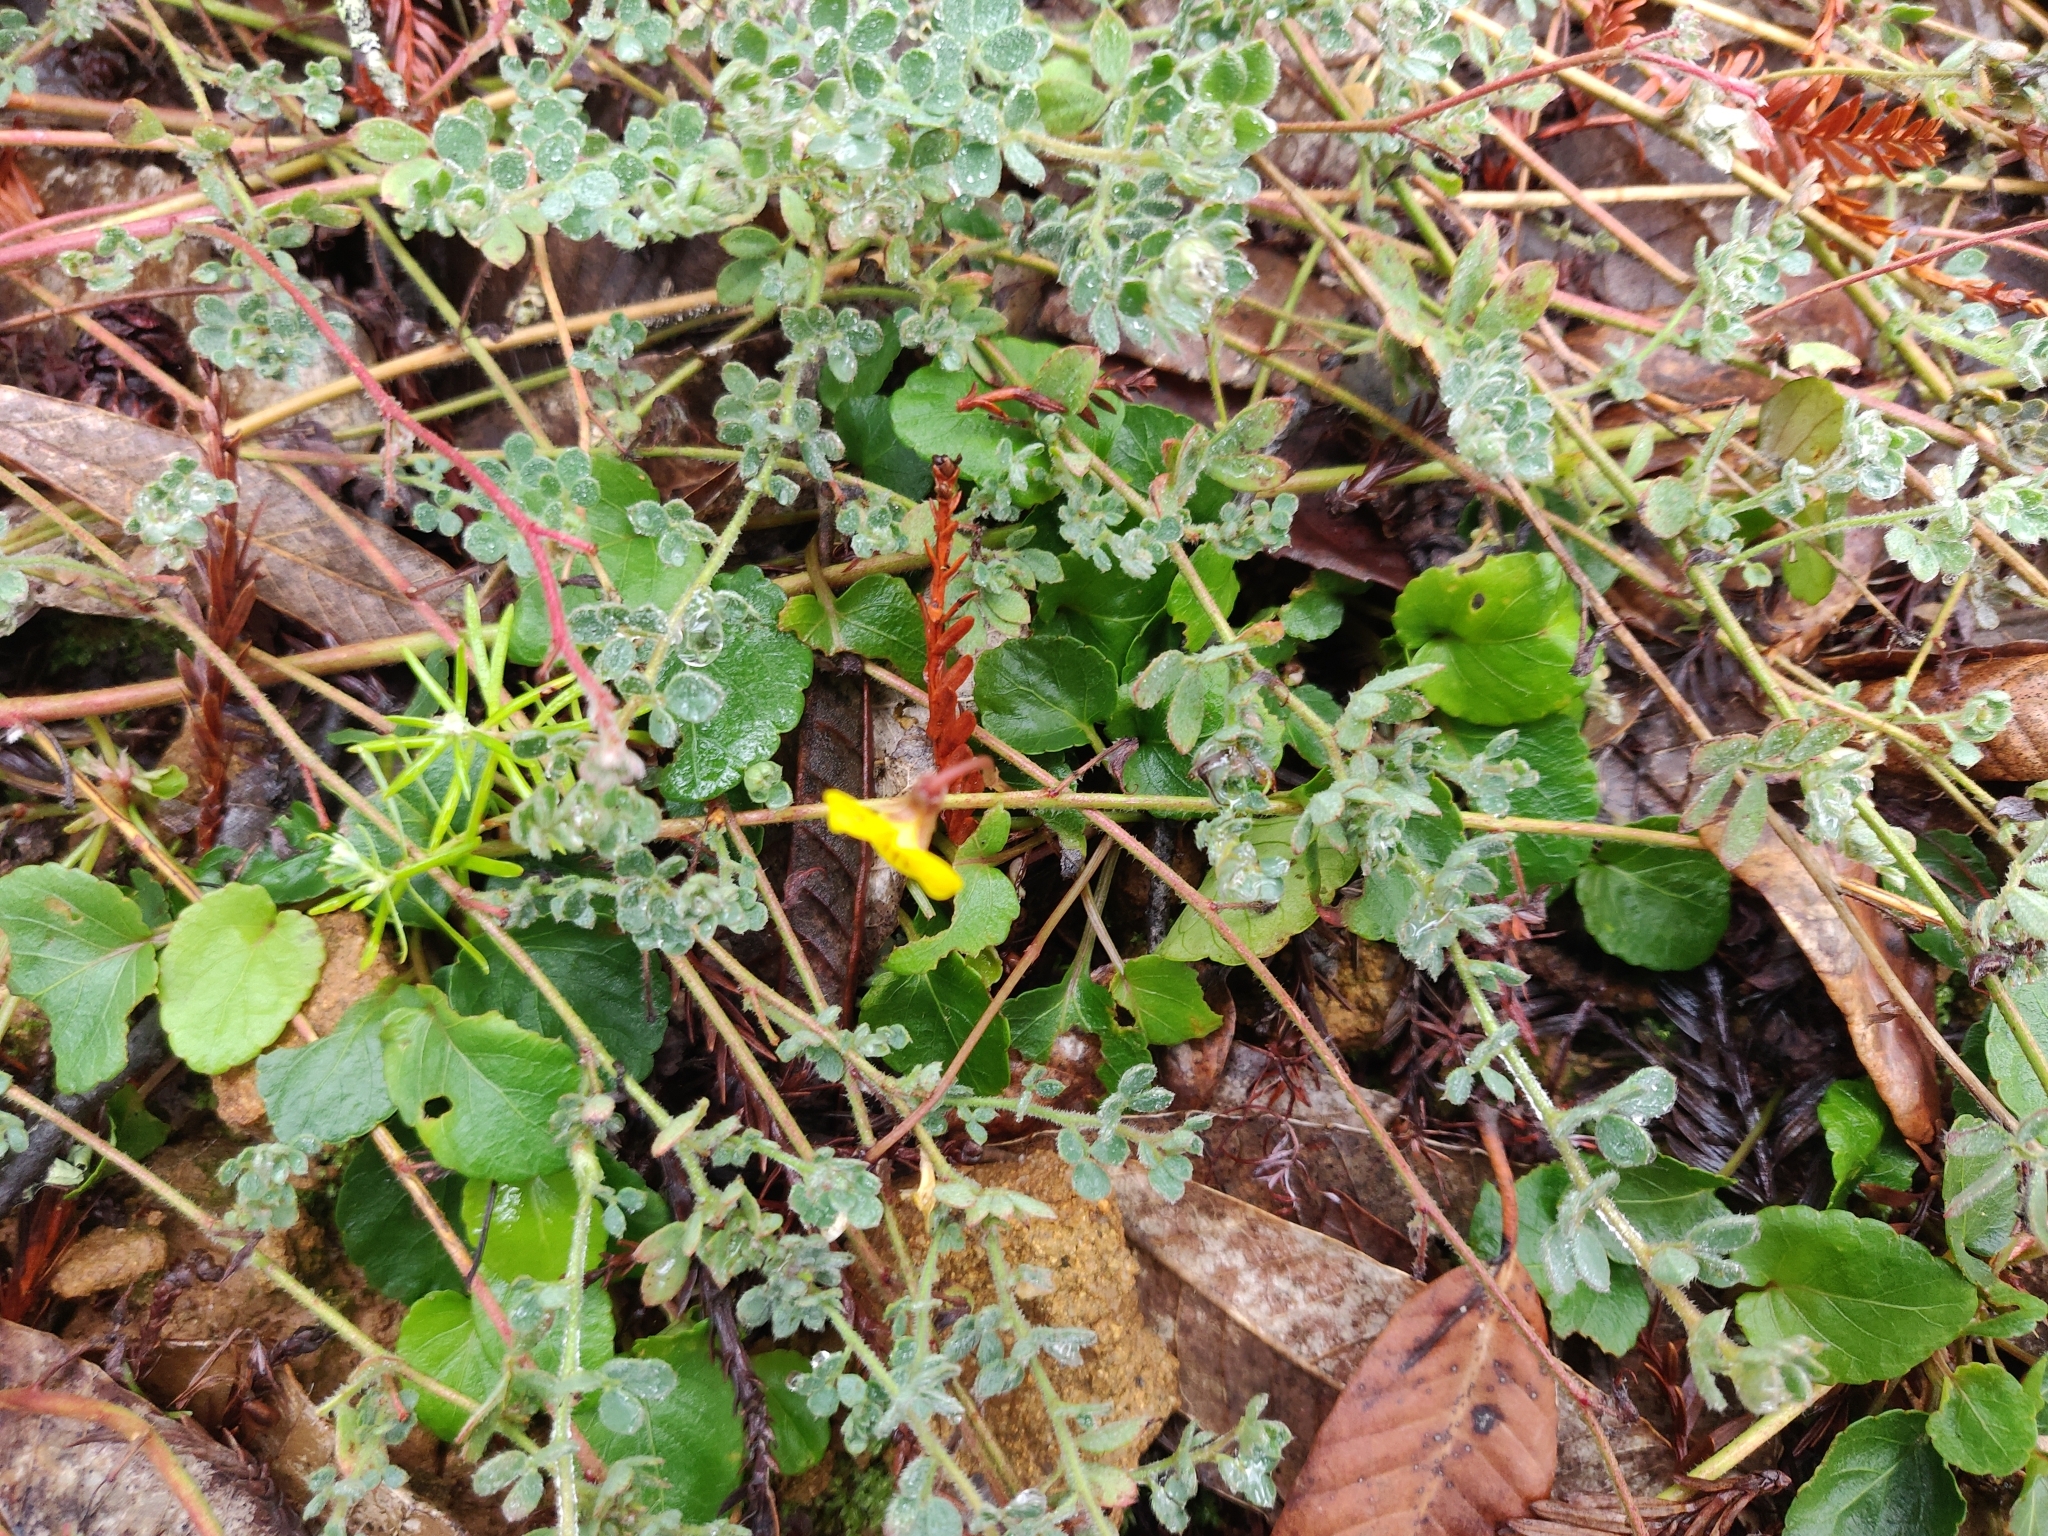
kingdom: Plantae
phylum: Tracheophyta
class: Magnoliopsida
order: Malpighiales
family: Violaceae
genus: Viola
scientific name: Viola sempervirens
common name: Evergreen violet
